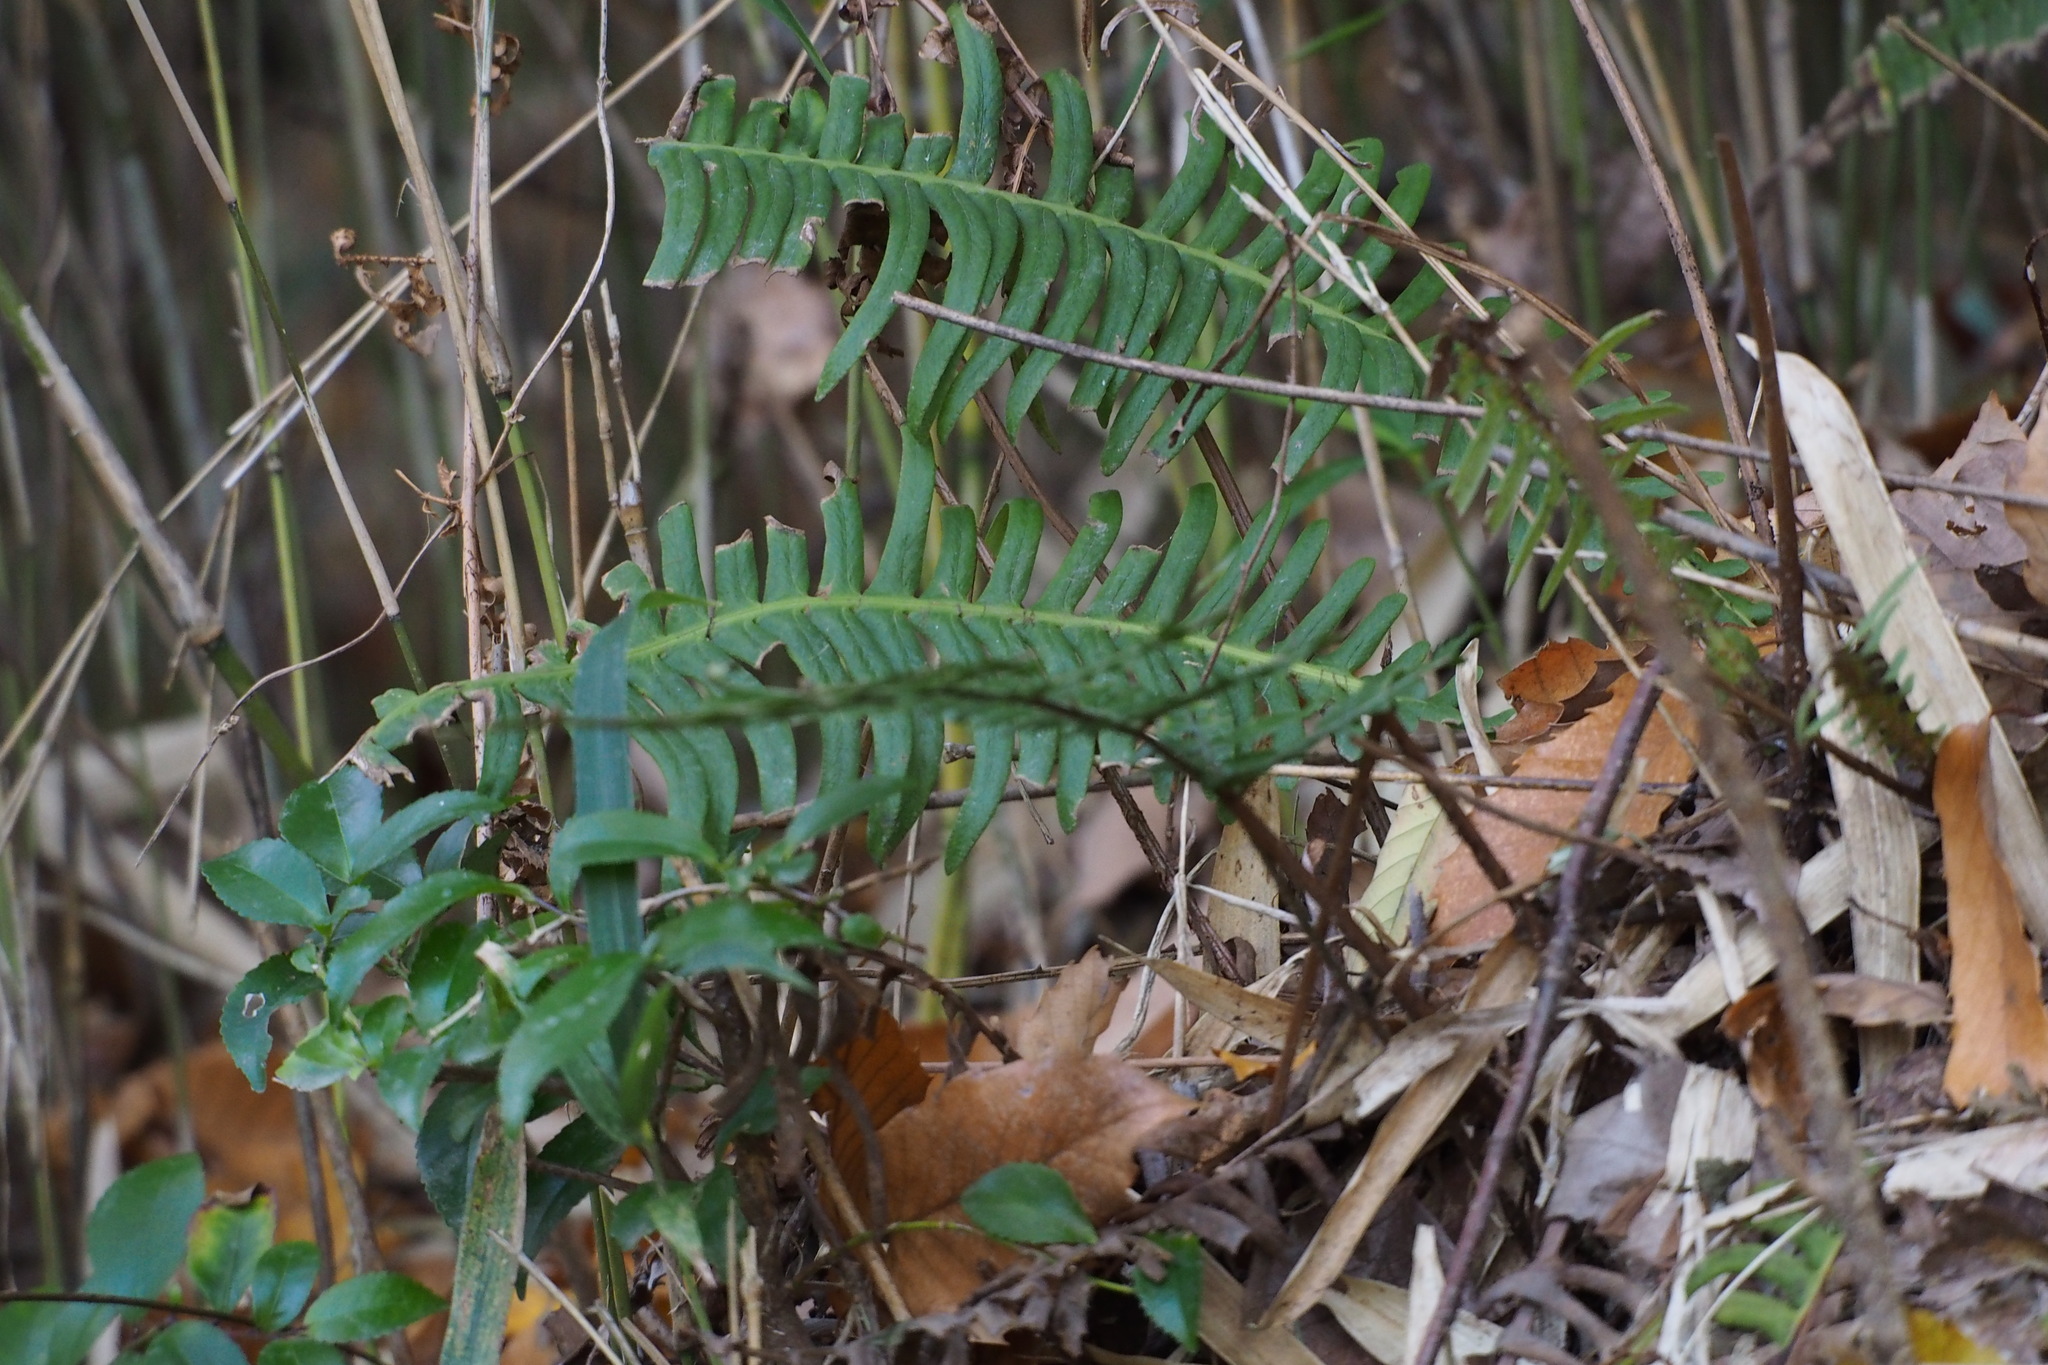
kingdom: Plantae
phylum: Tracheophyta
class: Polypodiopsida
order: Polypodiales
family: Blechnaceae
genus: Spicantopsis
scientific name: Spicantopsis niponica
